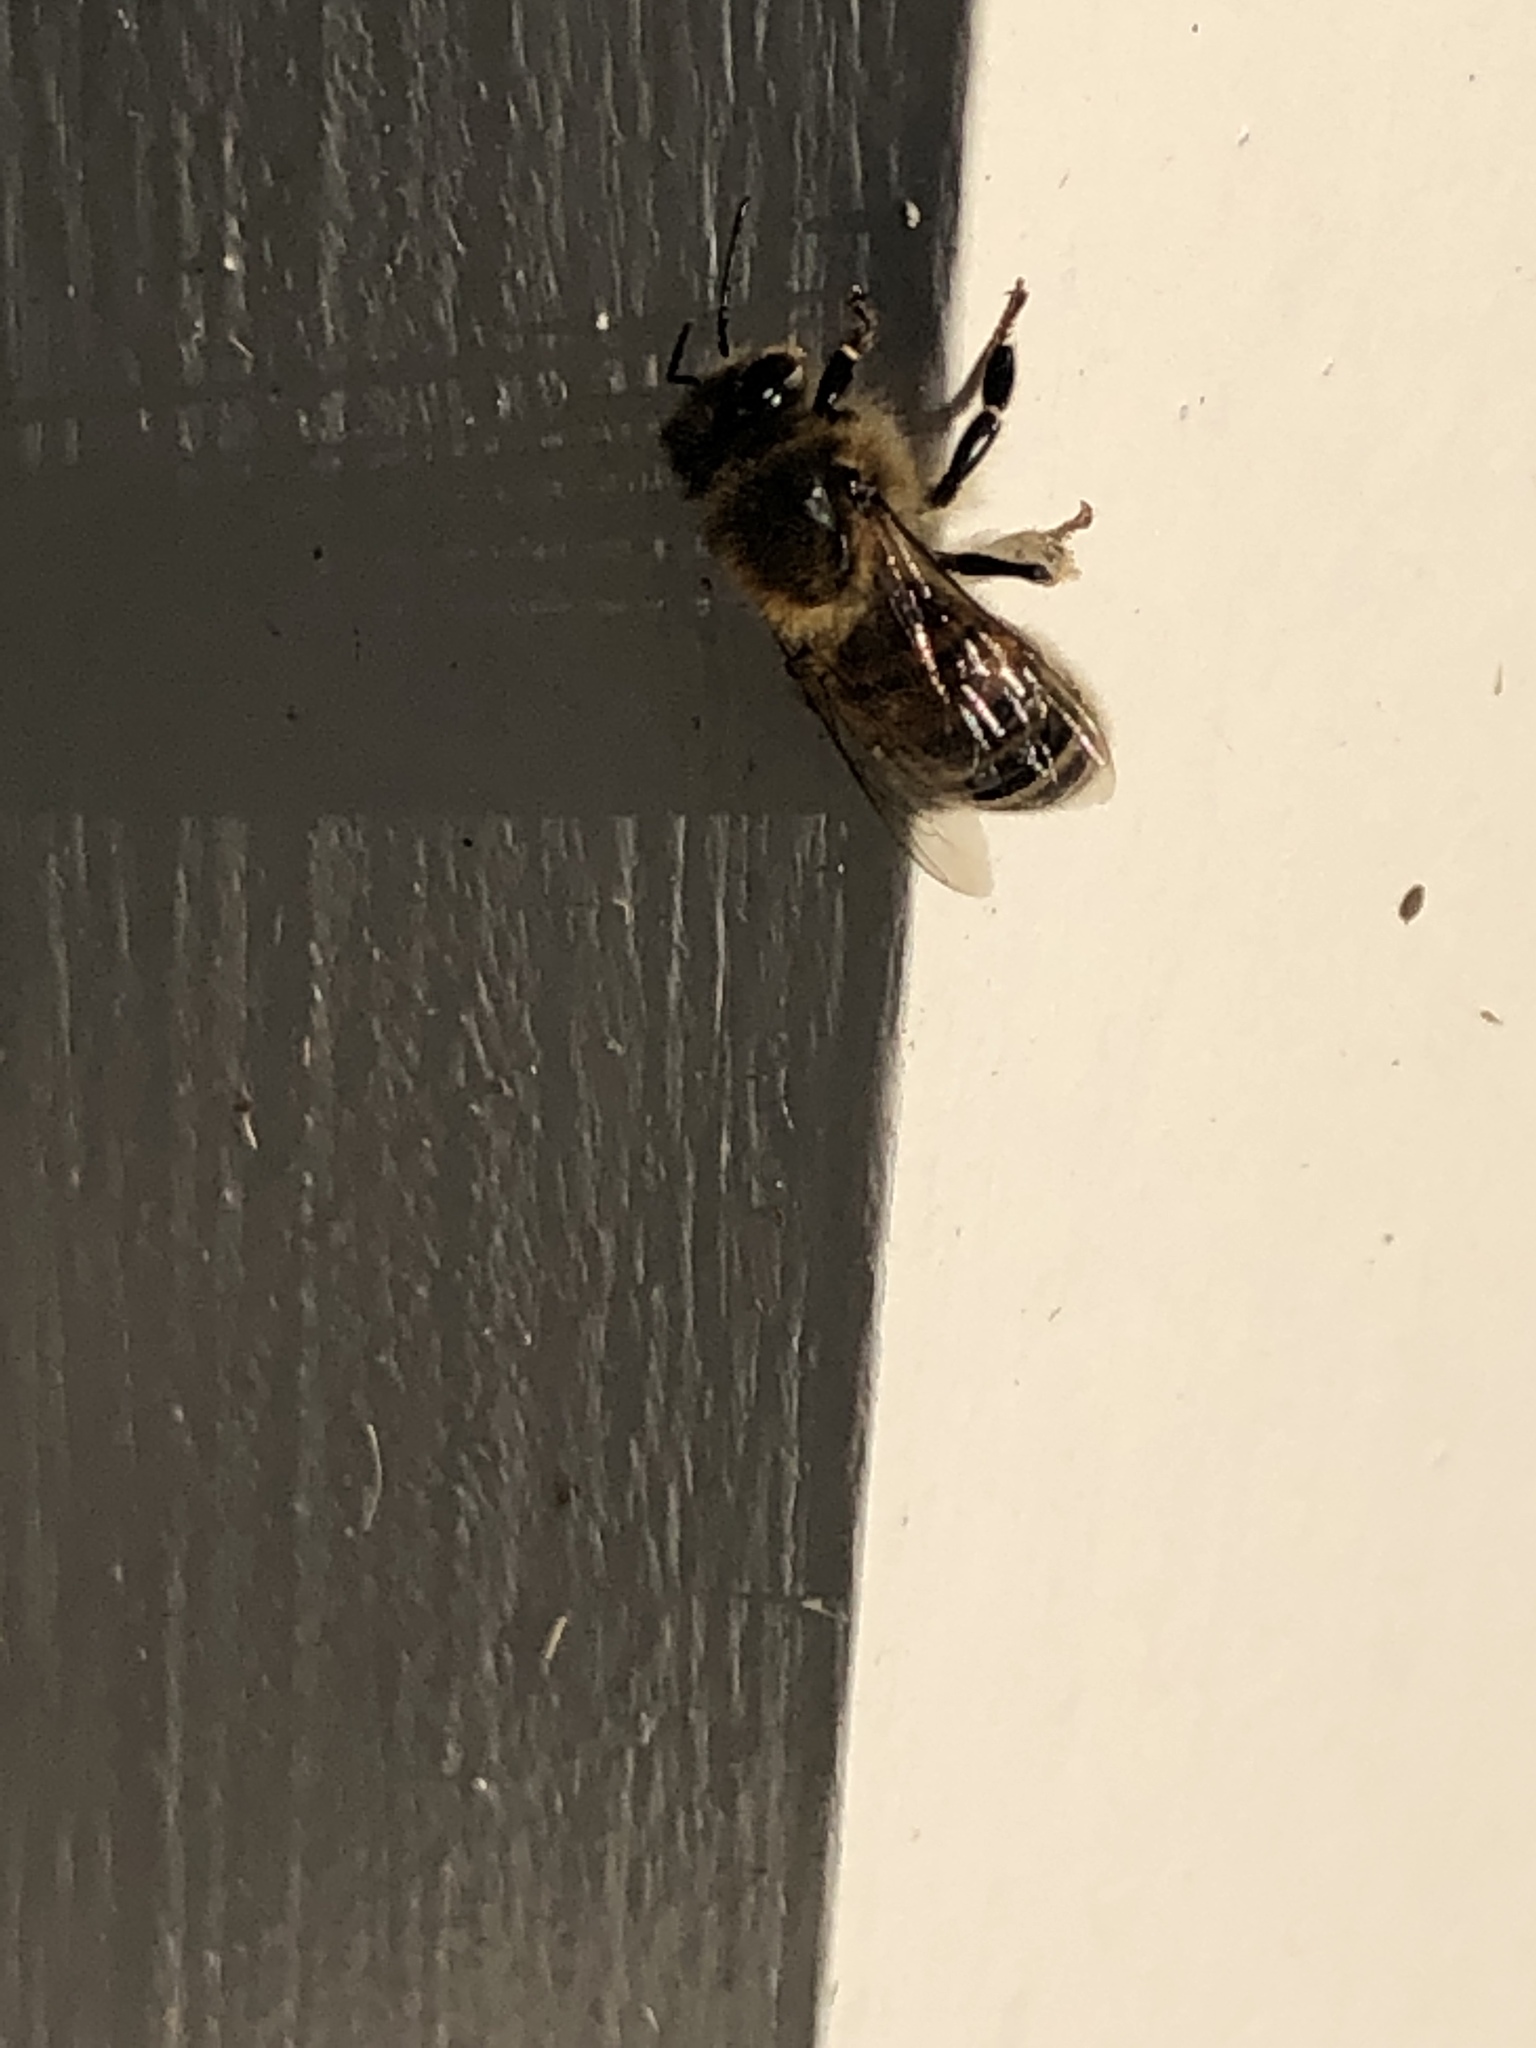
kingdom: Animalia
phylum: Arthropoda
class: Insecta
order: Hymenoptera
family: Apidae
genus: Apis
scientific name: Apis mellifera
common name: Honey bee
